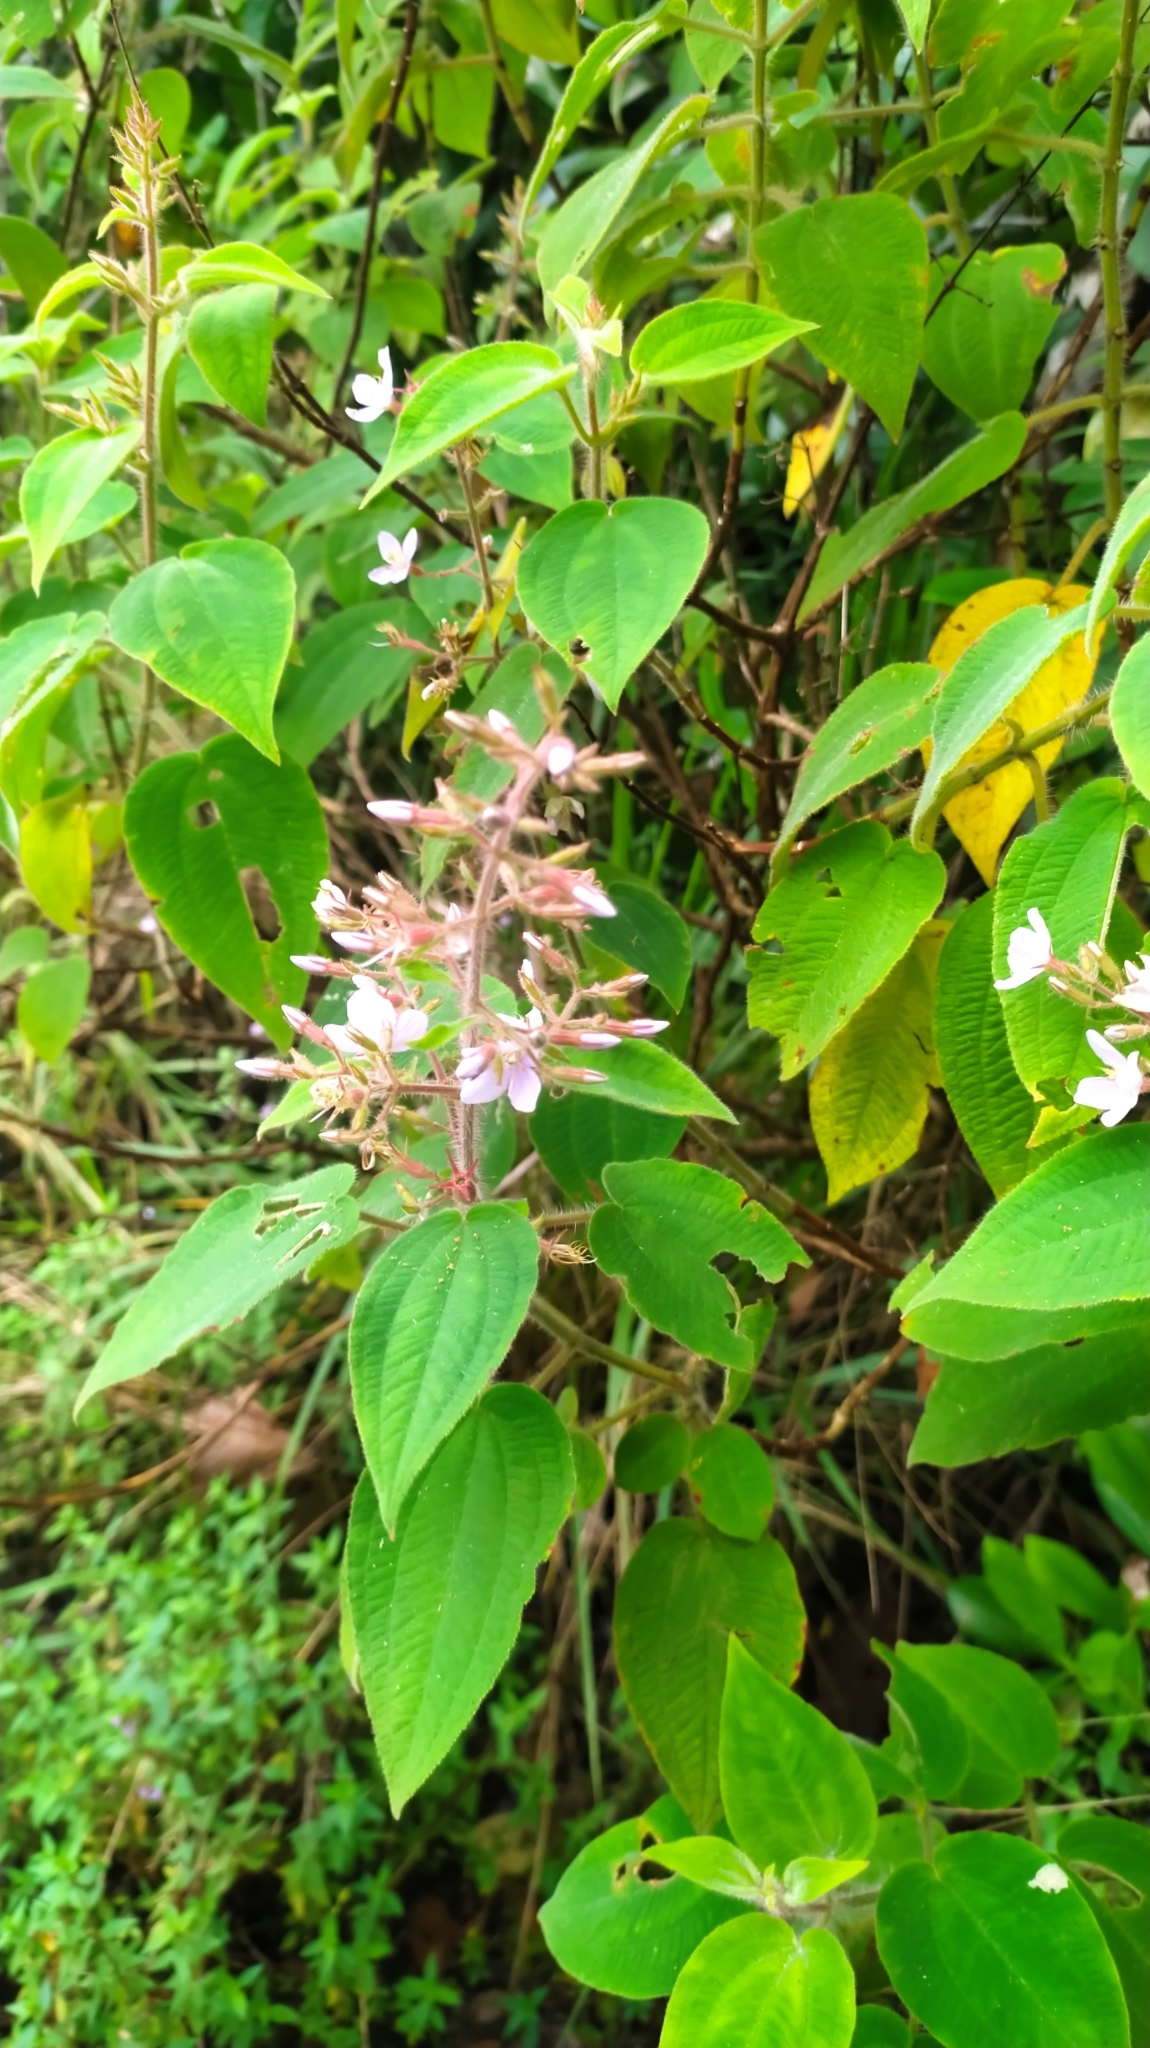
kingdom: Plantae
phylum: Tracheophyta
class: Magnoliopsida
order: Myrtales
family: Melastomataceae
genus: Ernestia
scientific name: Ernestia granvillei
